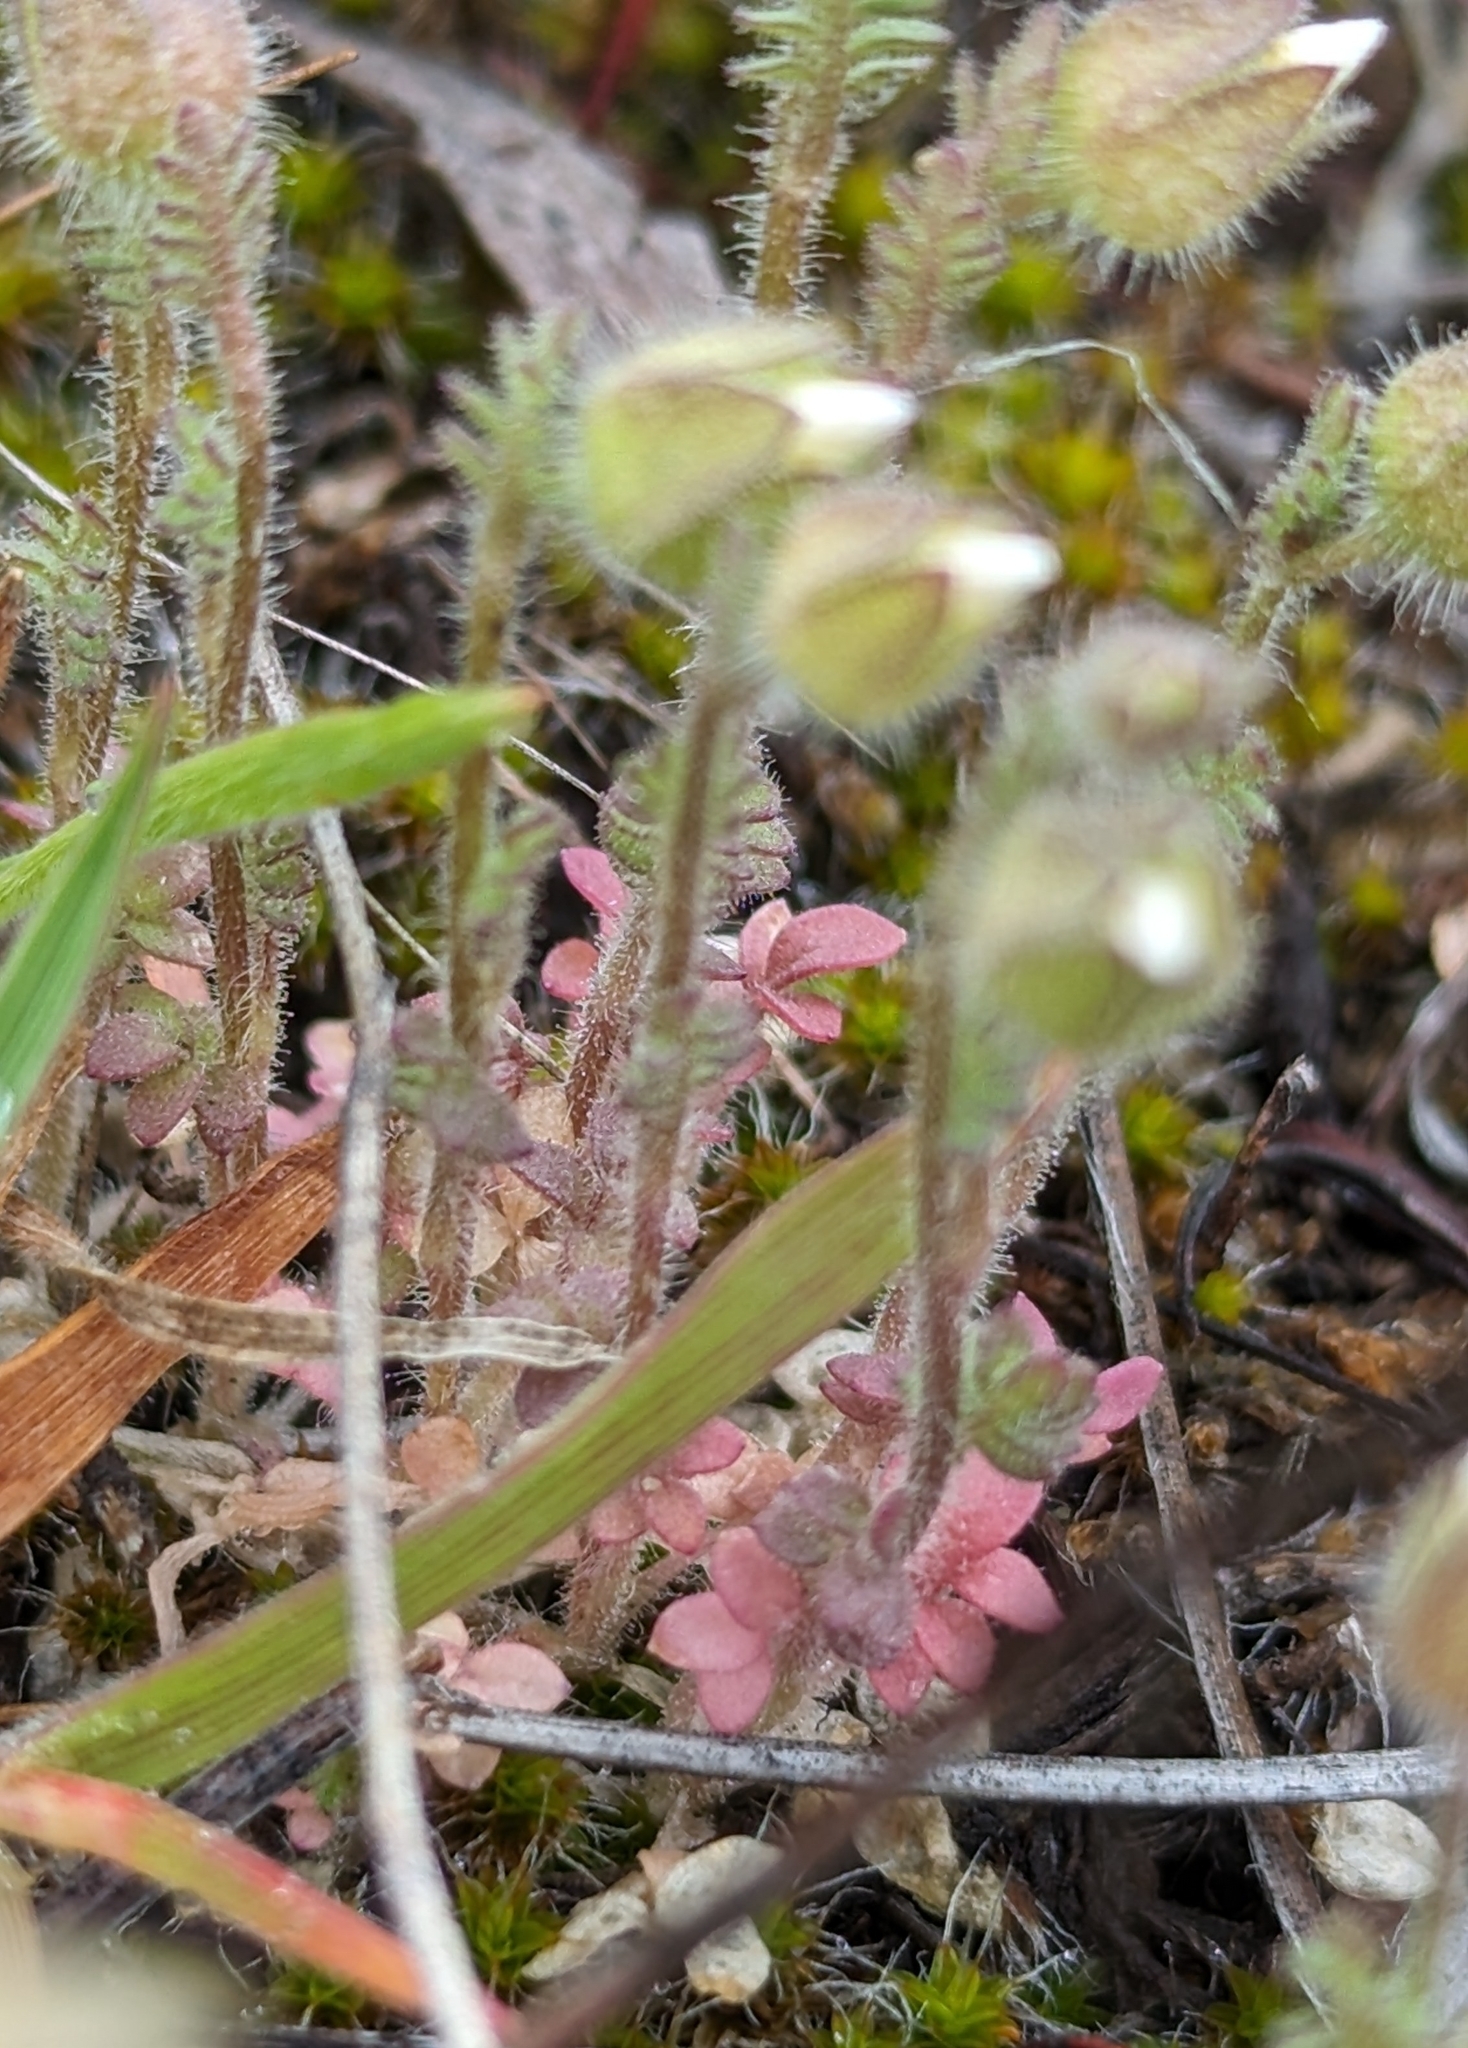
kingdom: Plantae
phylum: Tracheophyta
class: Magnoliopsida
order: Ericales
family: Polemoniaceae
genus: Polemonium
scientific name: Polemonium micranthum
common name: Annual jacob's-ladder
